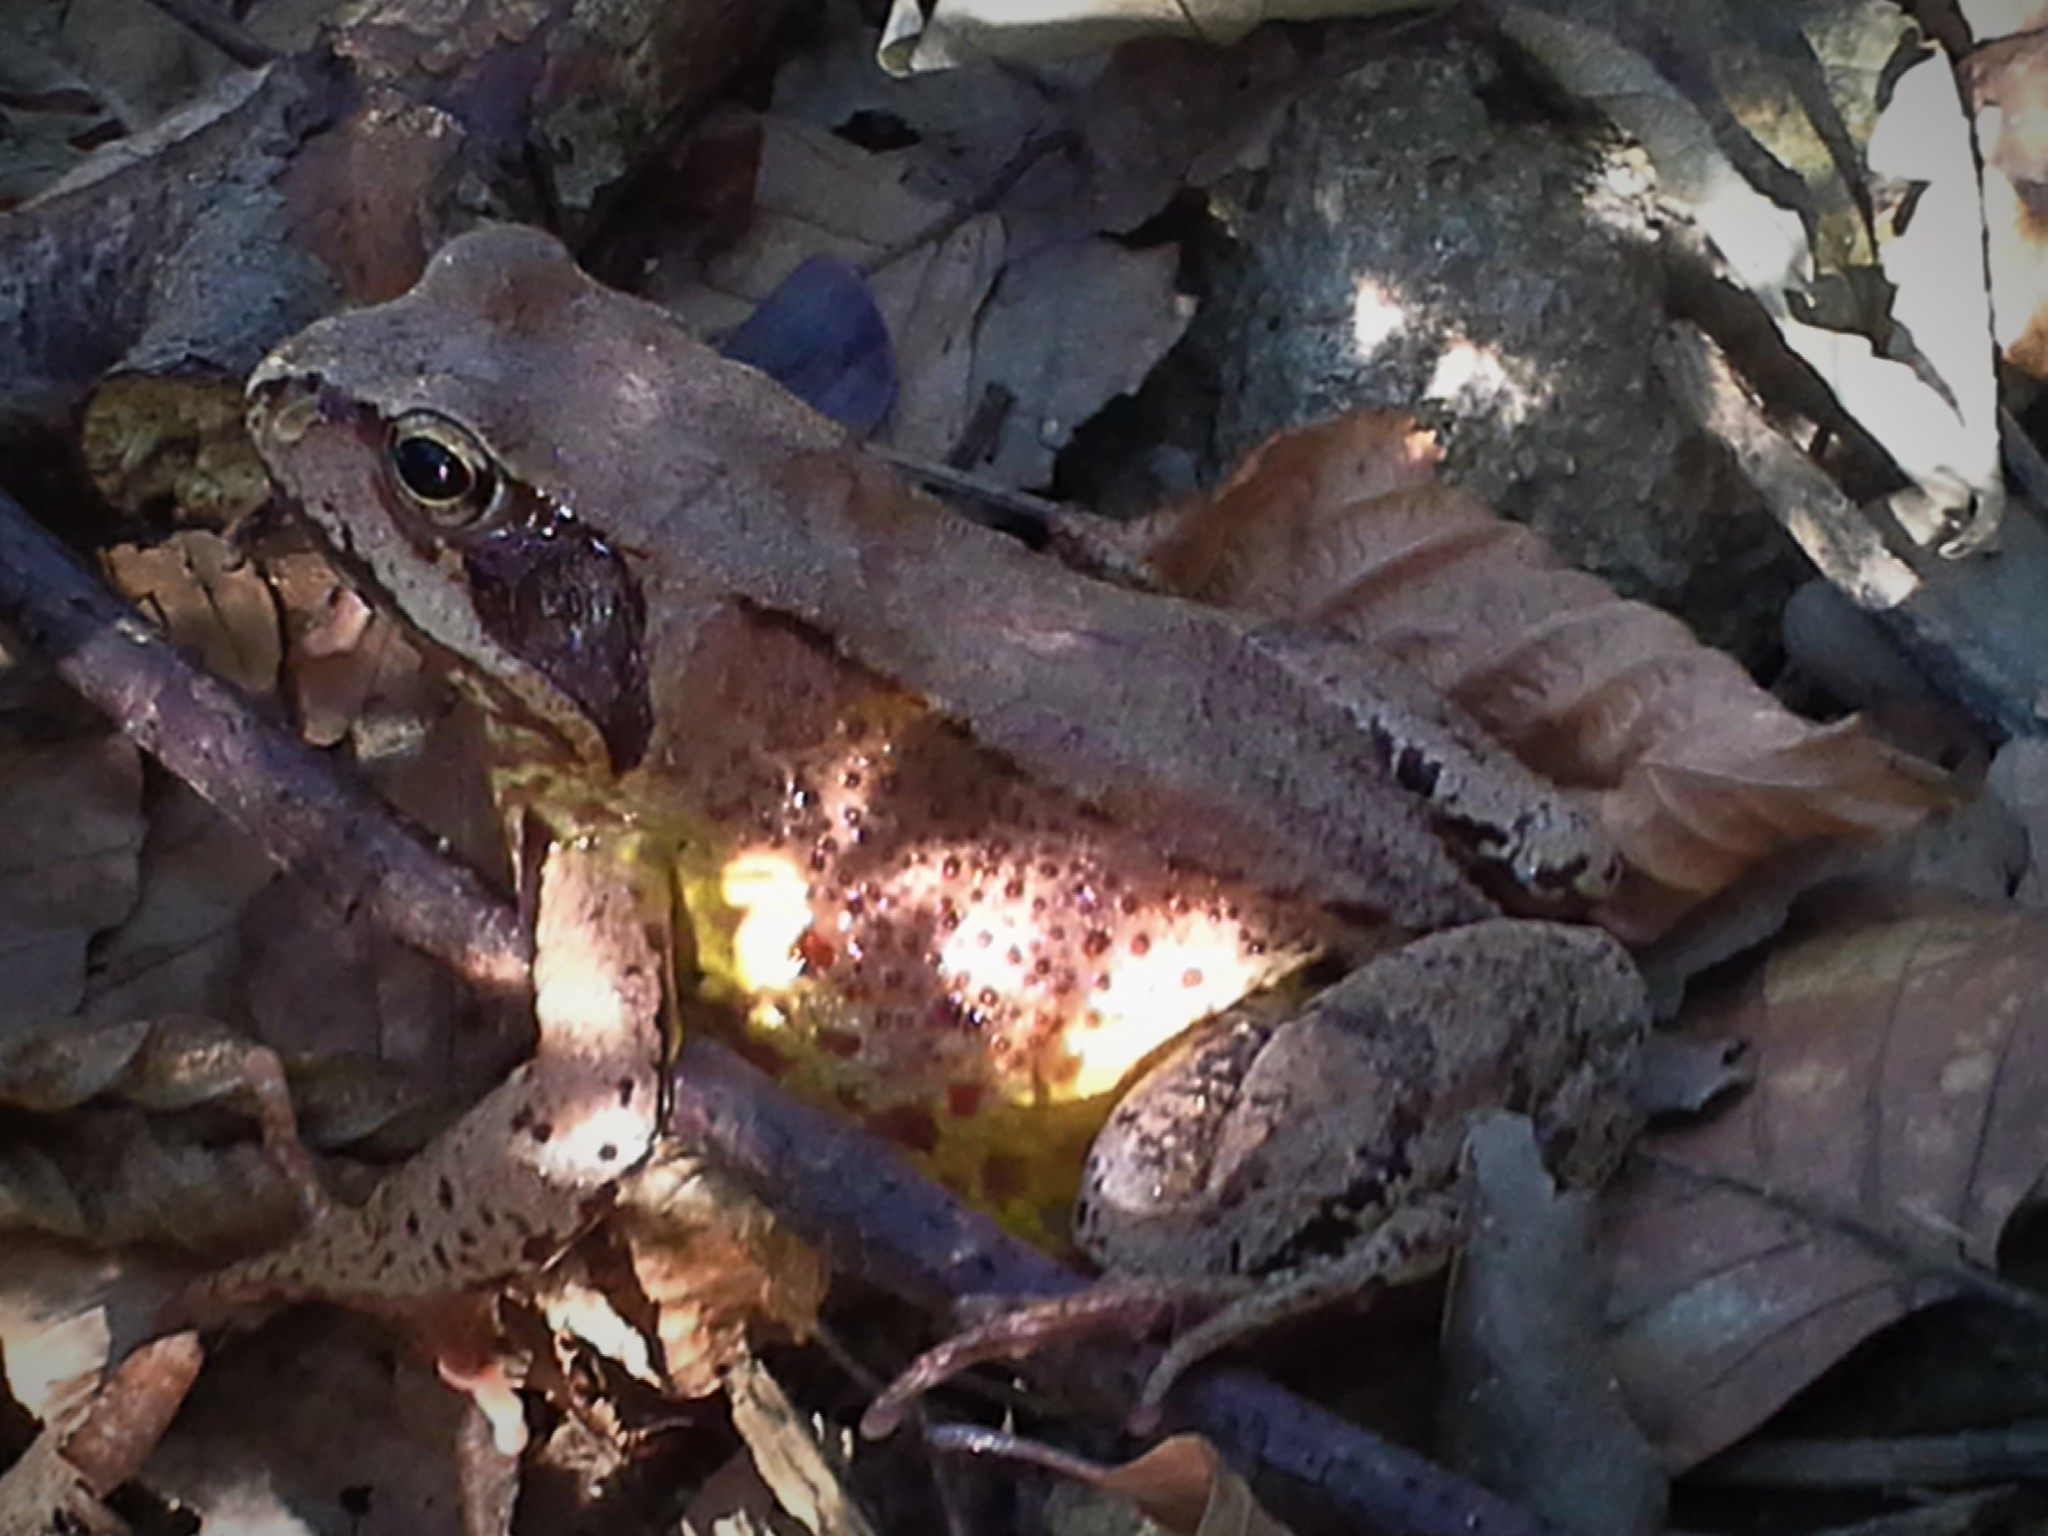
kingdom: Animalia
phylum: Chordata
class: Amphibia
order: Anura
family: Ranidae
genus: Rana
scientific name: Rana temporaria
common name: Common frog
